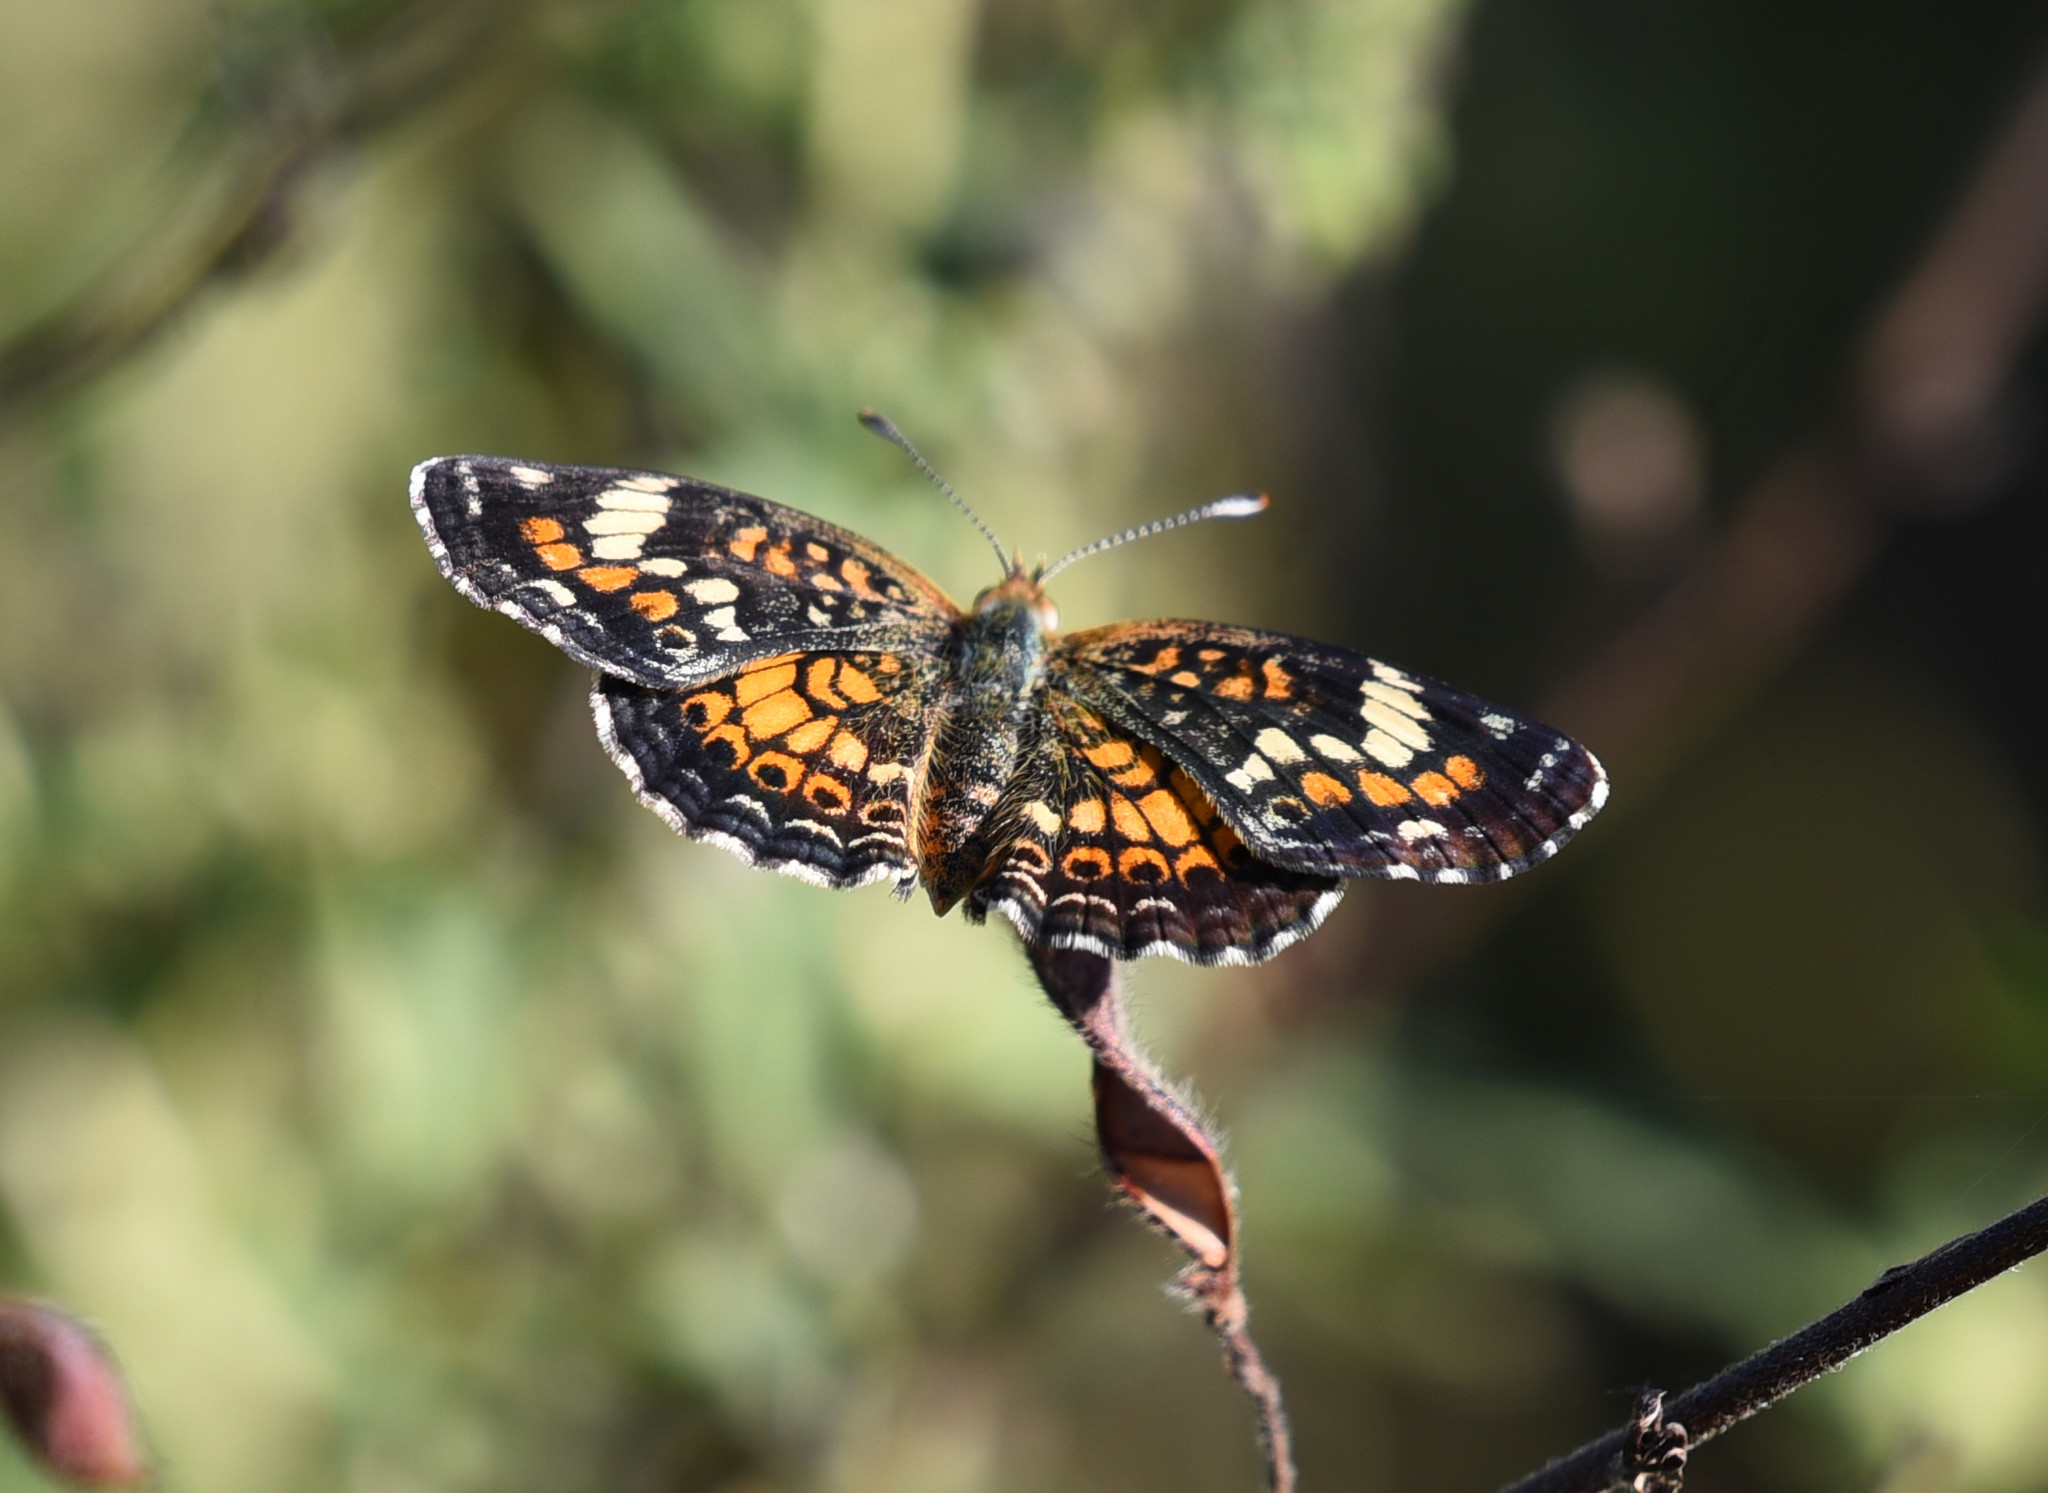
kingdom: Animalia
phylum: Arthropoda
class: Insecta
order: Lepidoptera
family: Nymphalidae
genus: Phyciodes
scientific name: Phyciodes phaon
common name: Phaon crescent
